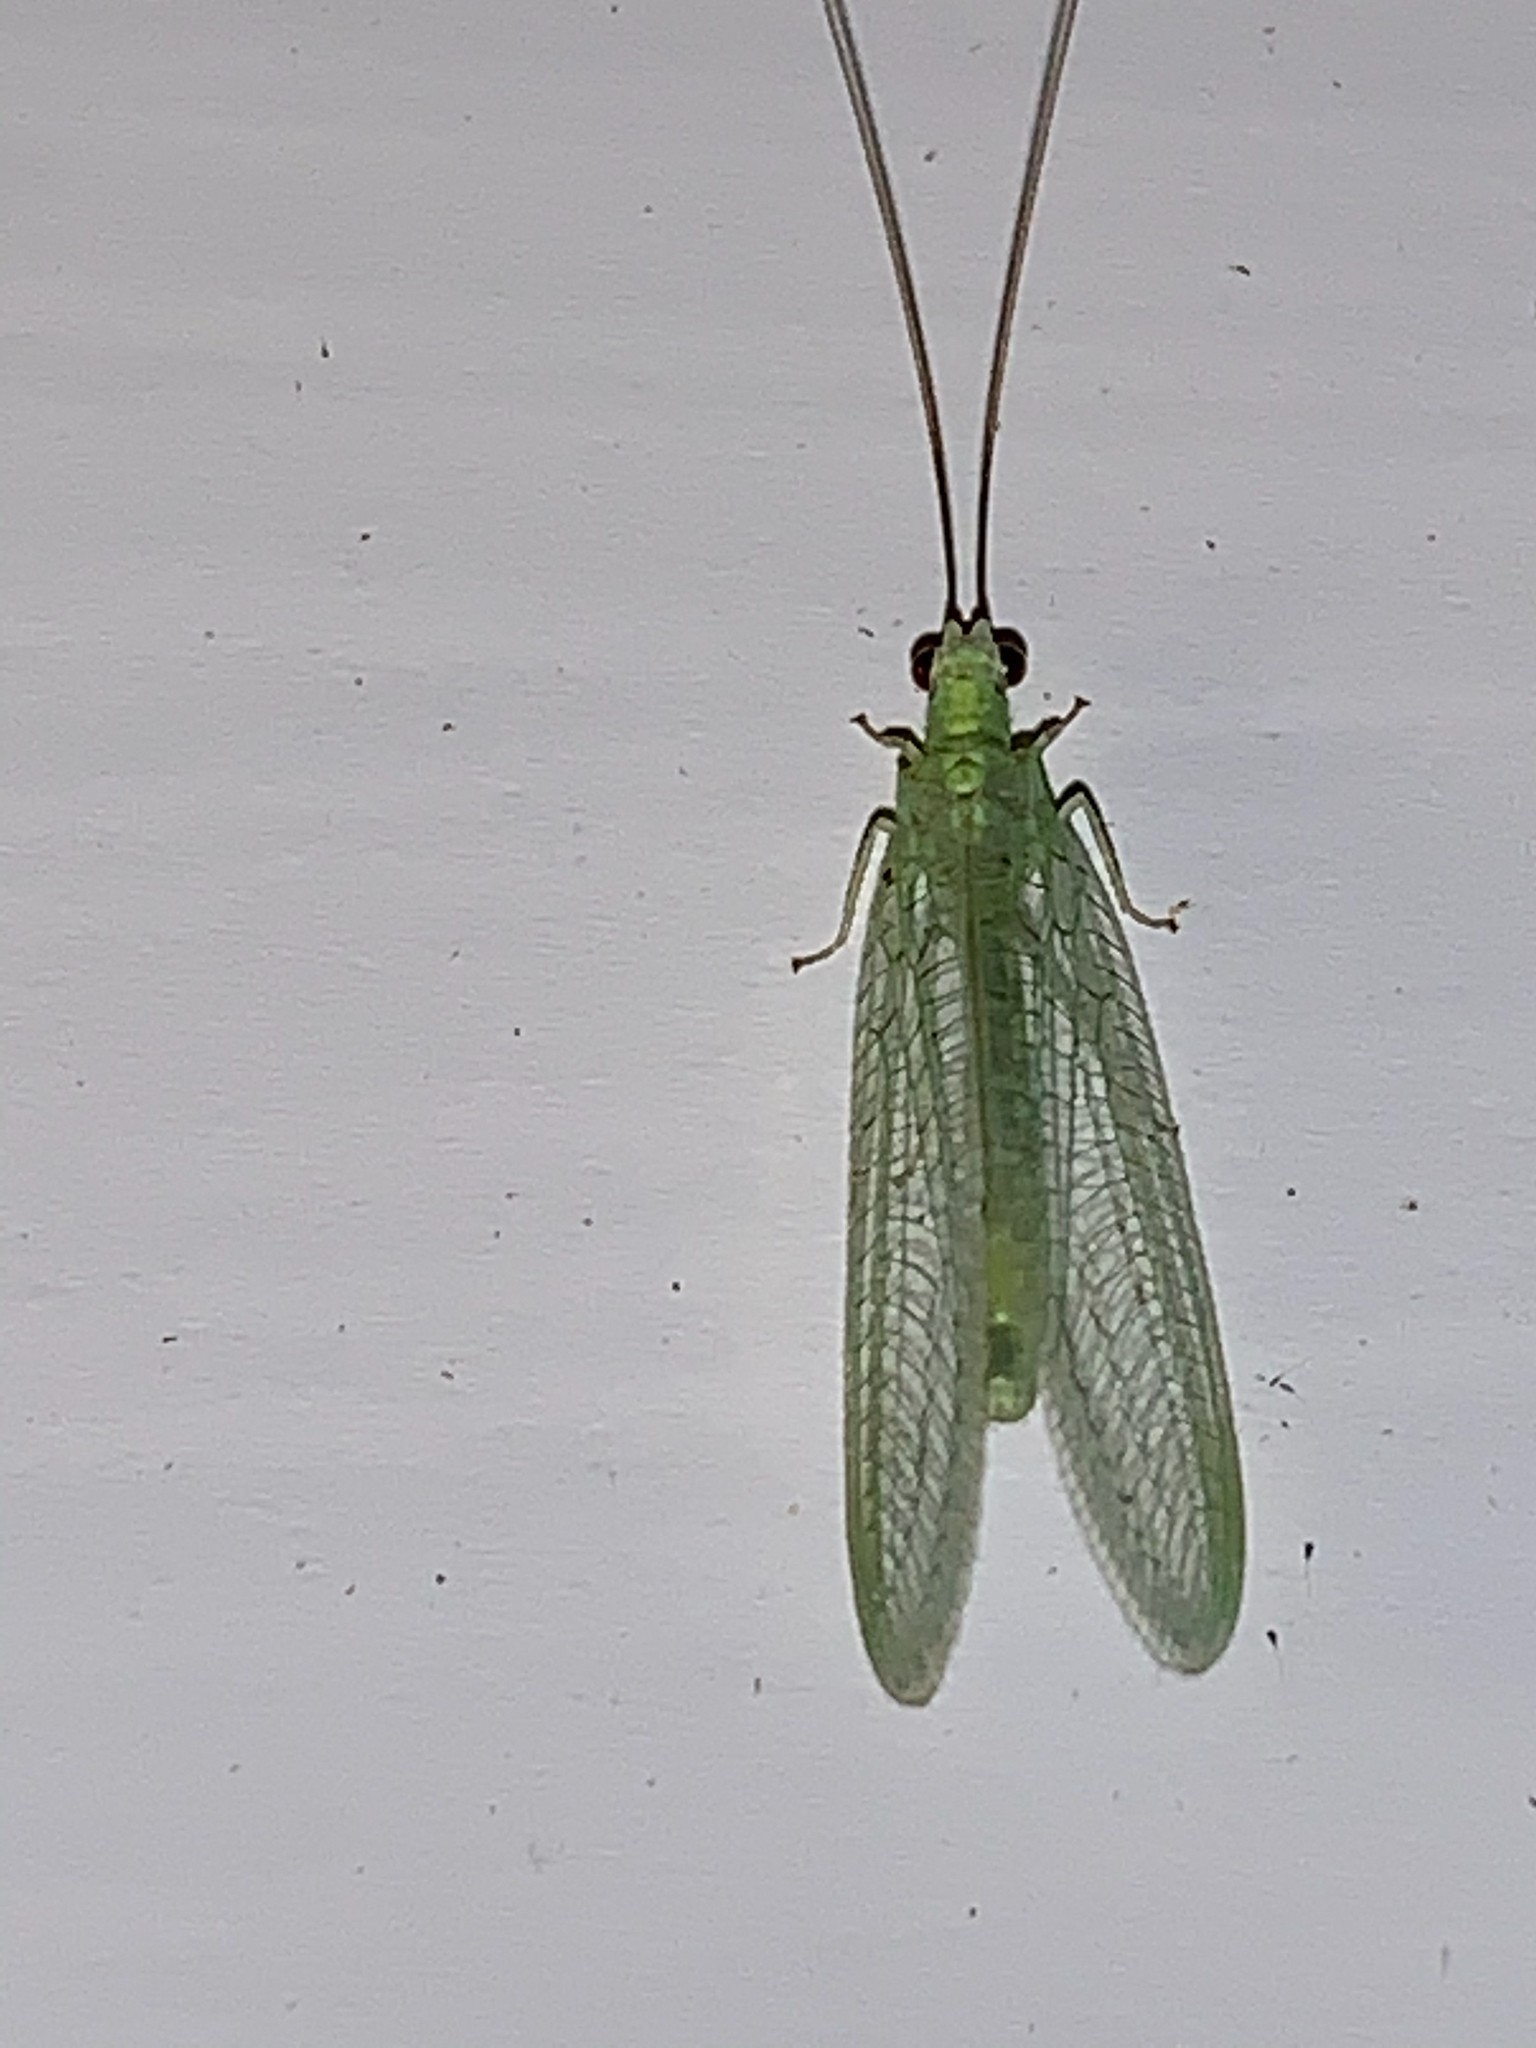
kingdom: Animalia
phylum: Arthropoda
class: Insecta
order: Neuroptera
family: Chrysopidae
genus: Chrysopa
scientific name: Chrysopa nigricornis
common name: Black-horned green lacewing
